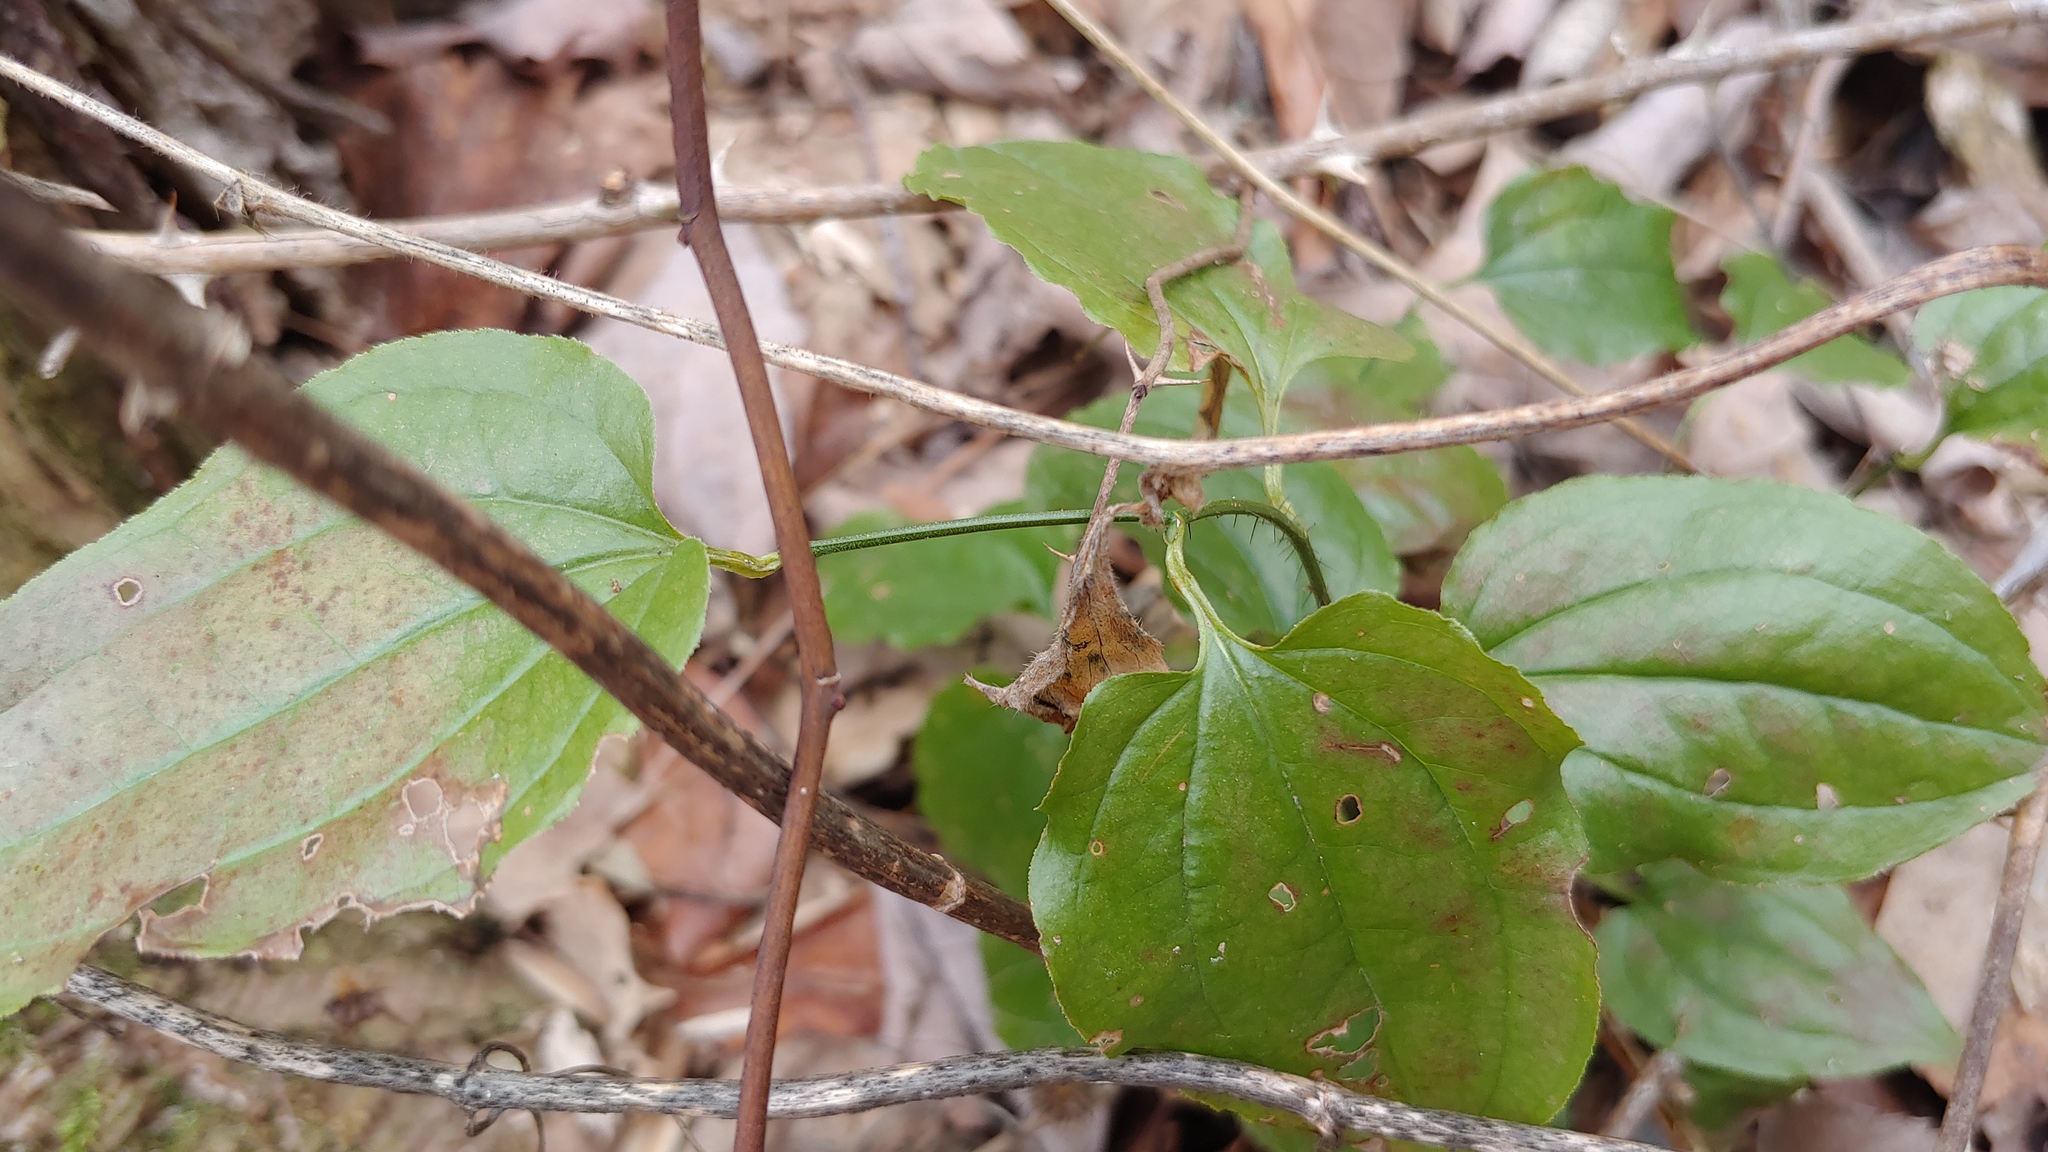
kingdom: Plantae
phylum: Tracheophyta
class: Liliopsida
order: Liliales
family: Smilacaceae
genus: Smilax
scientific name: Smilax tamnoides
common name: Hellfetter
